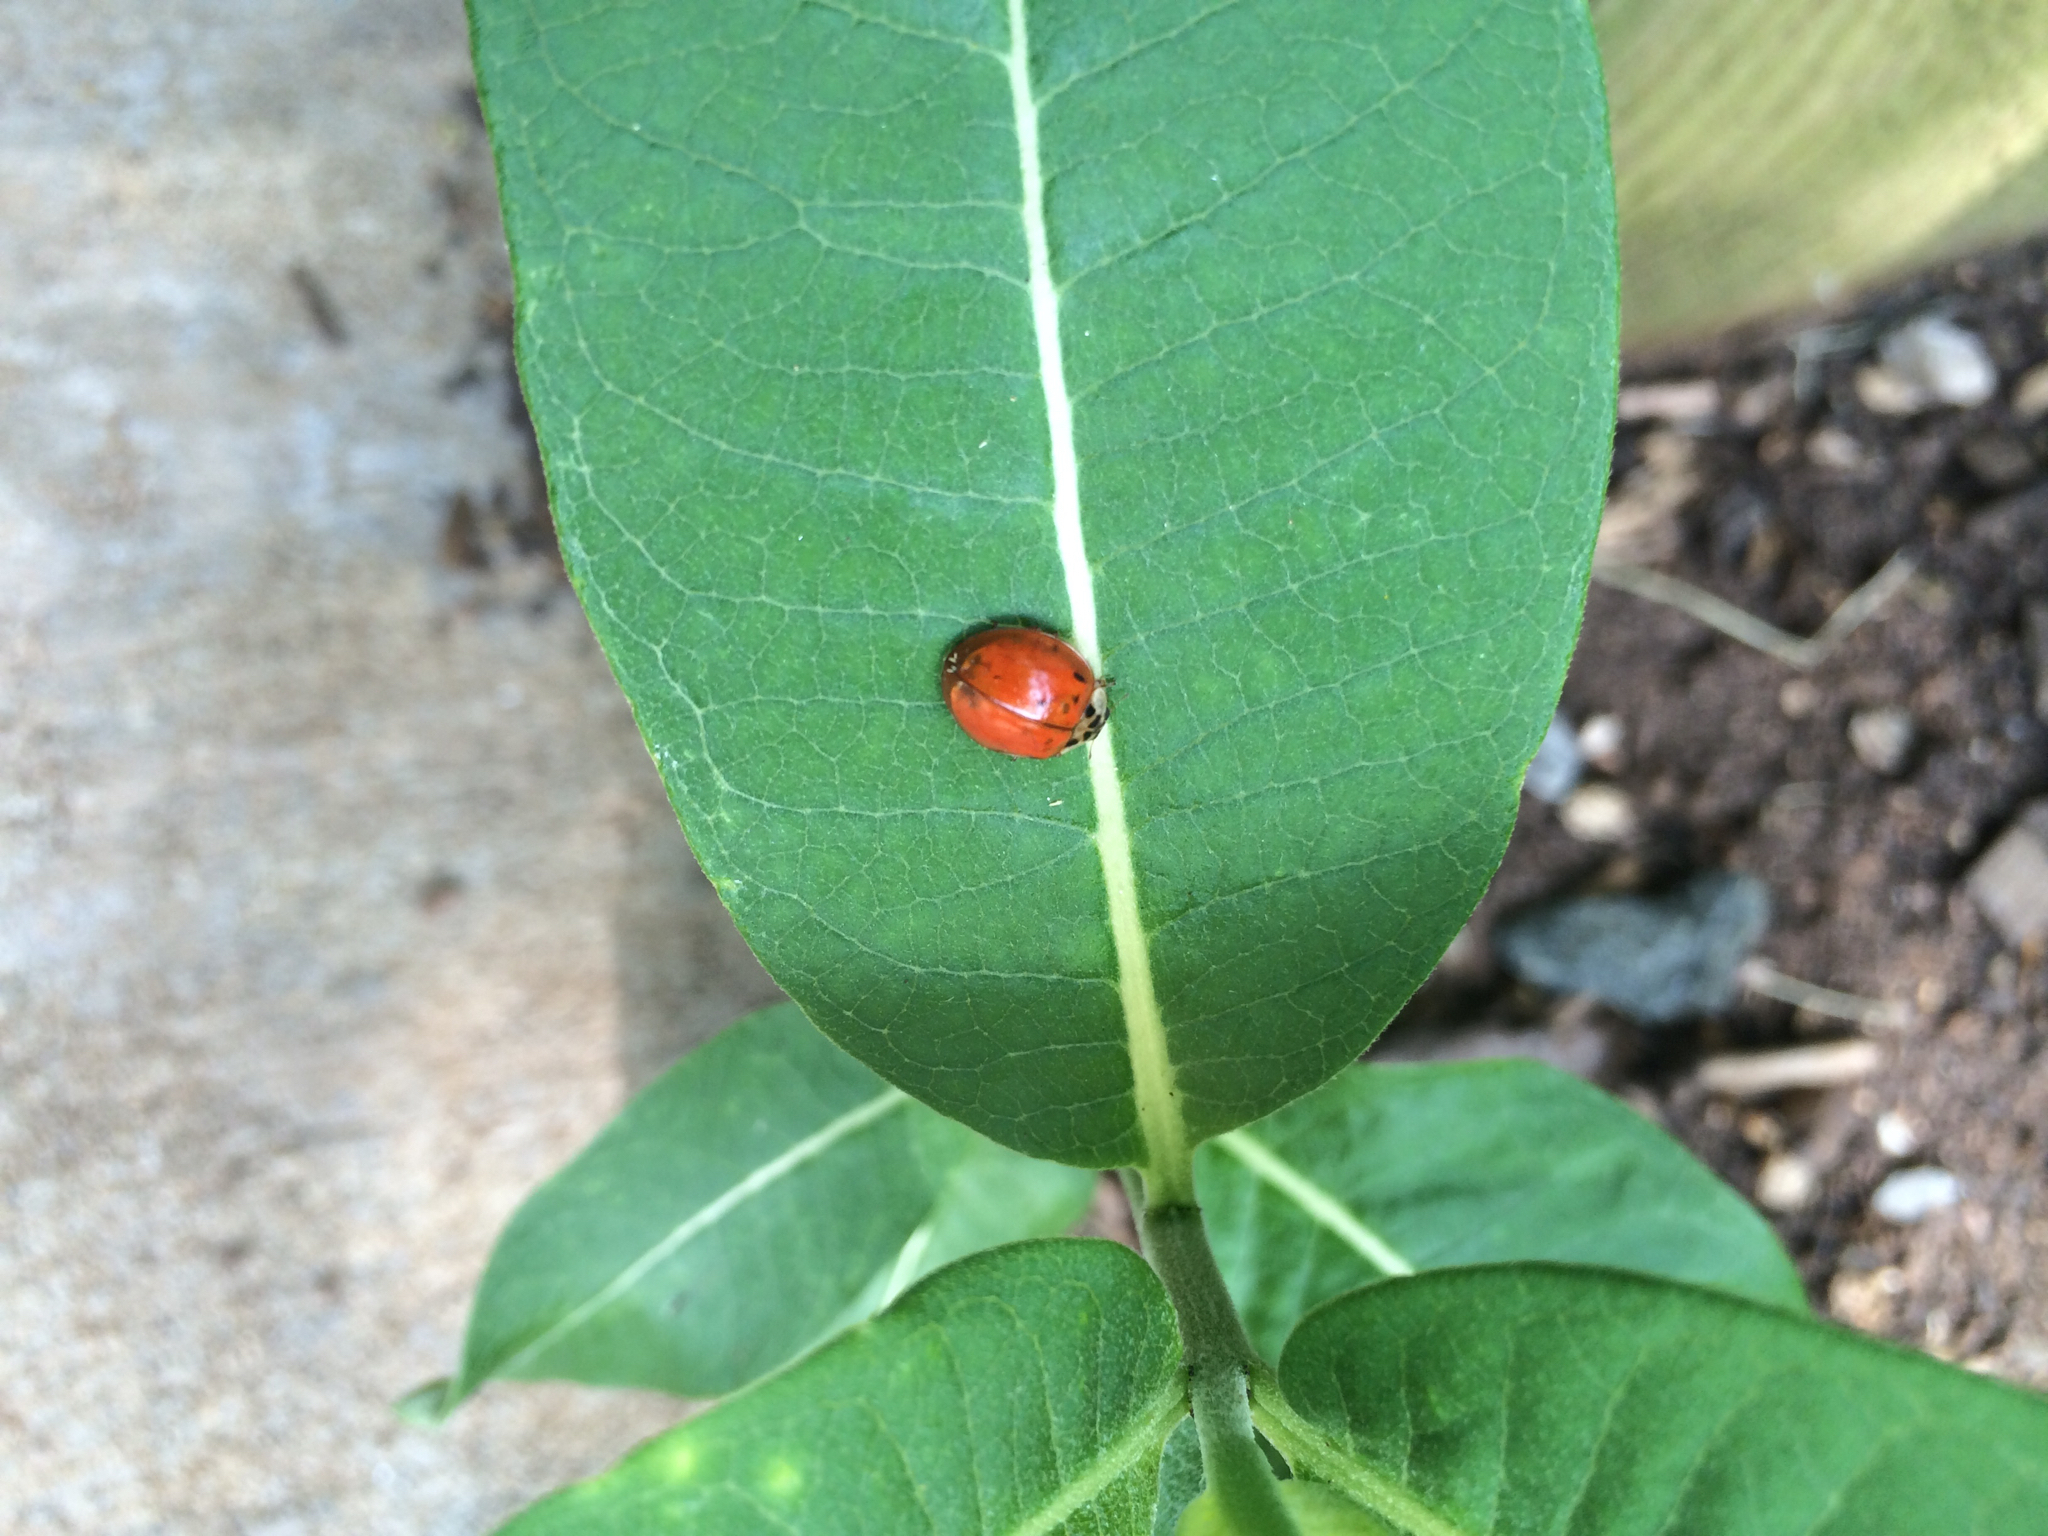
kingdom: Animalia
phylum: Arthropoda
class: Insecta
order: Coleoptera
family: Coccinellidae
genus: Harmonia
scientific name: Harmonia axyridis
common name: Harlequin ladybird
